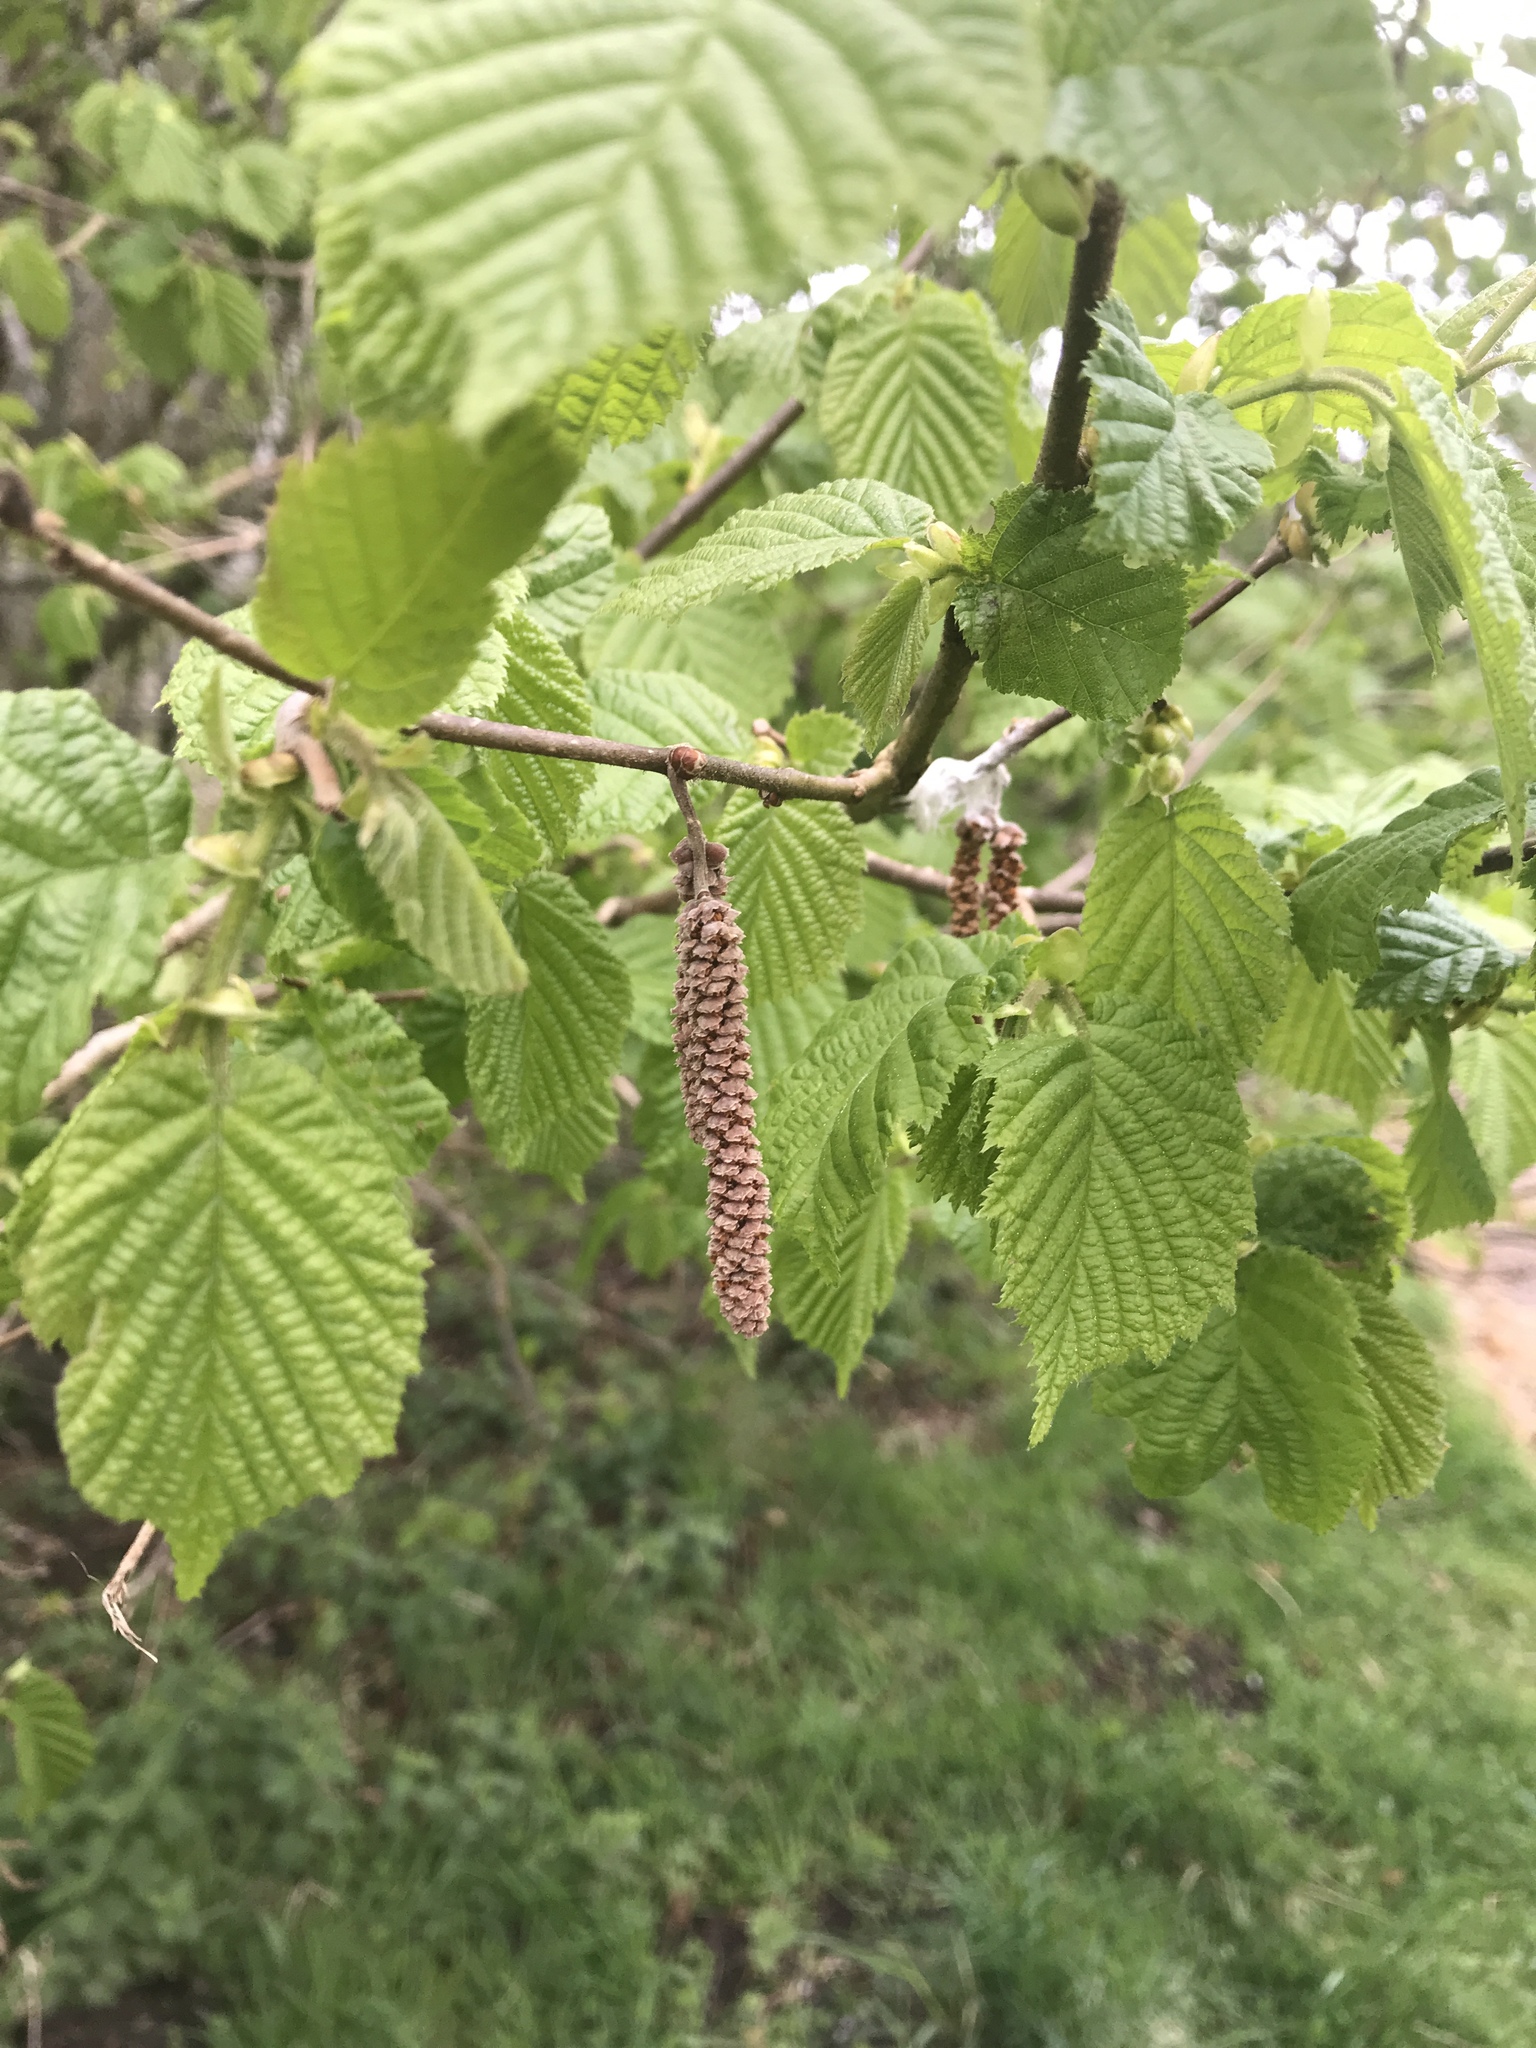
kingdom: Plantae
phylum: Tracheophyta
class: Magnoliopsida
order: Fagales
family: Betulaceae
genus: Corylus
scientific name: Corylus avellana
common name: European hazel
